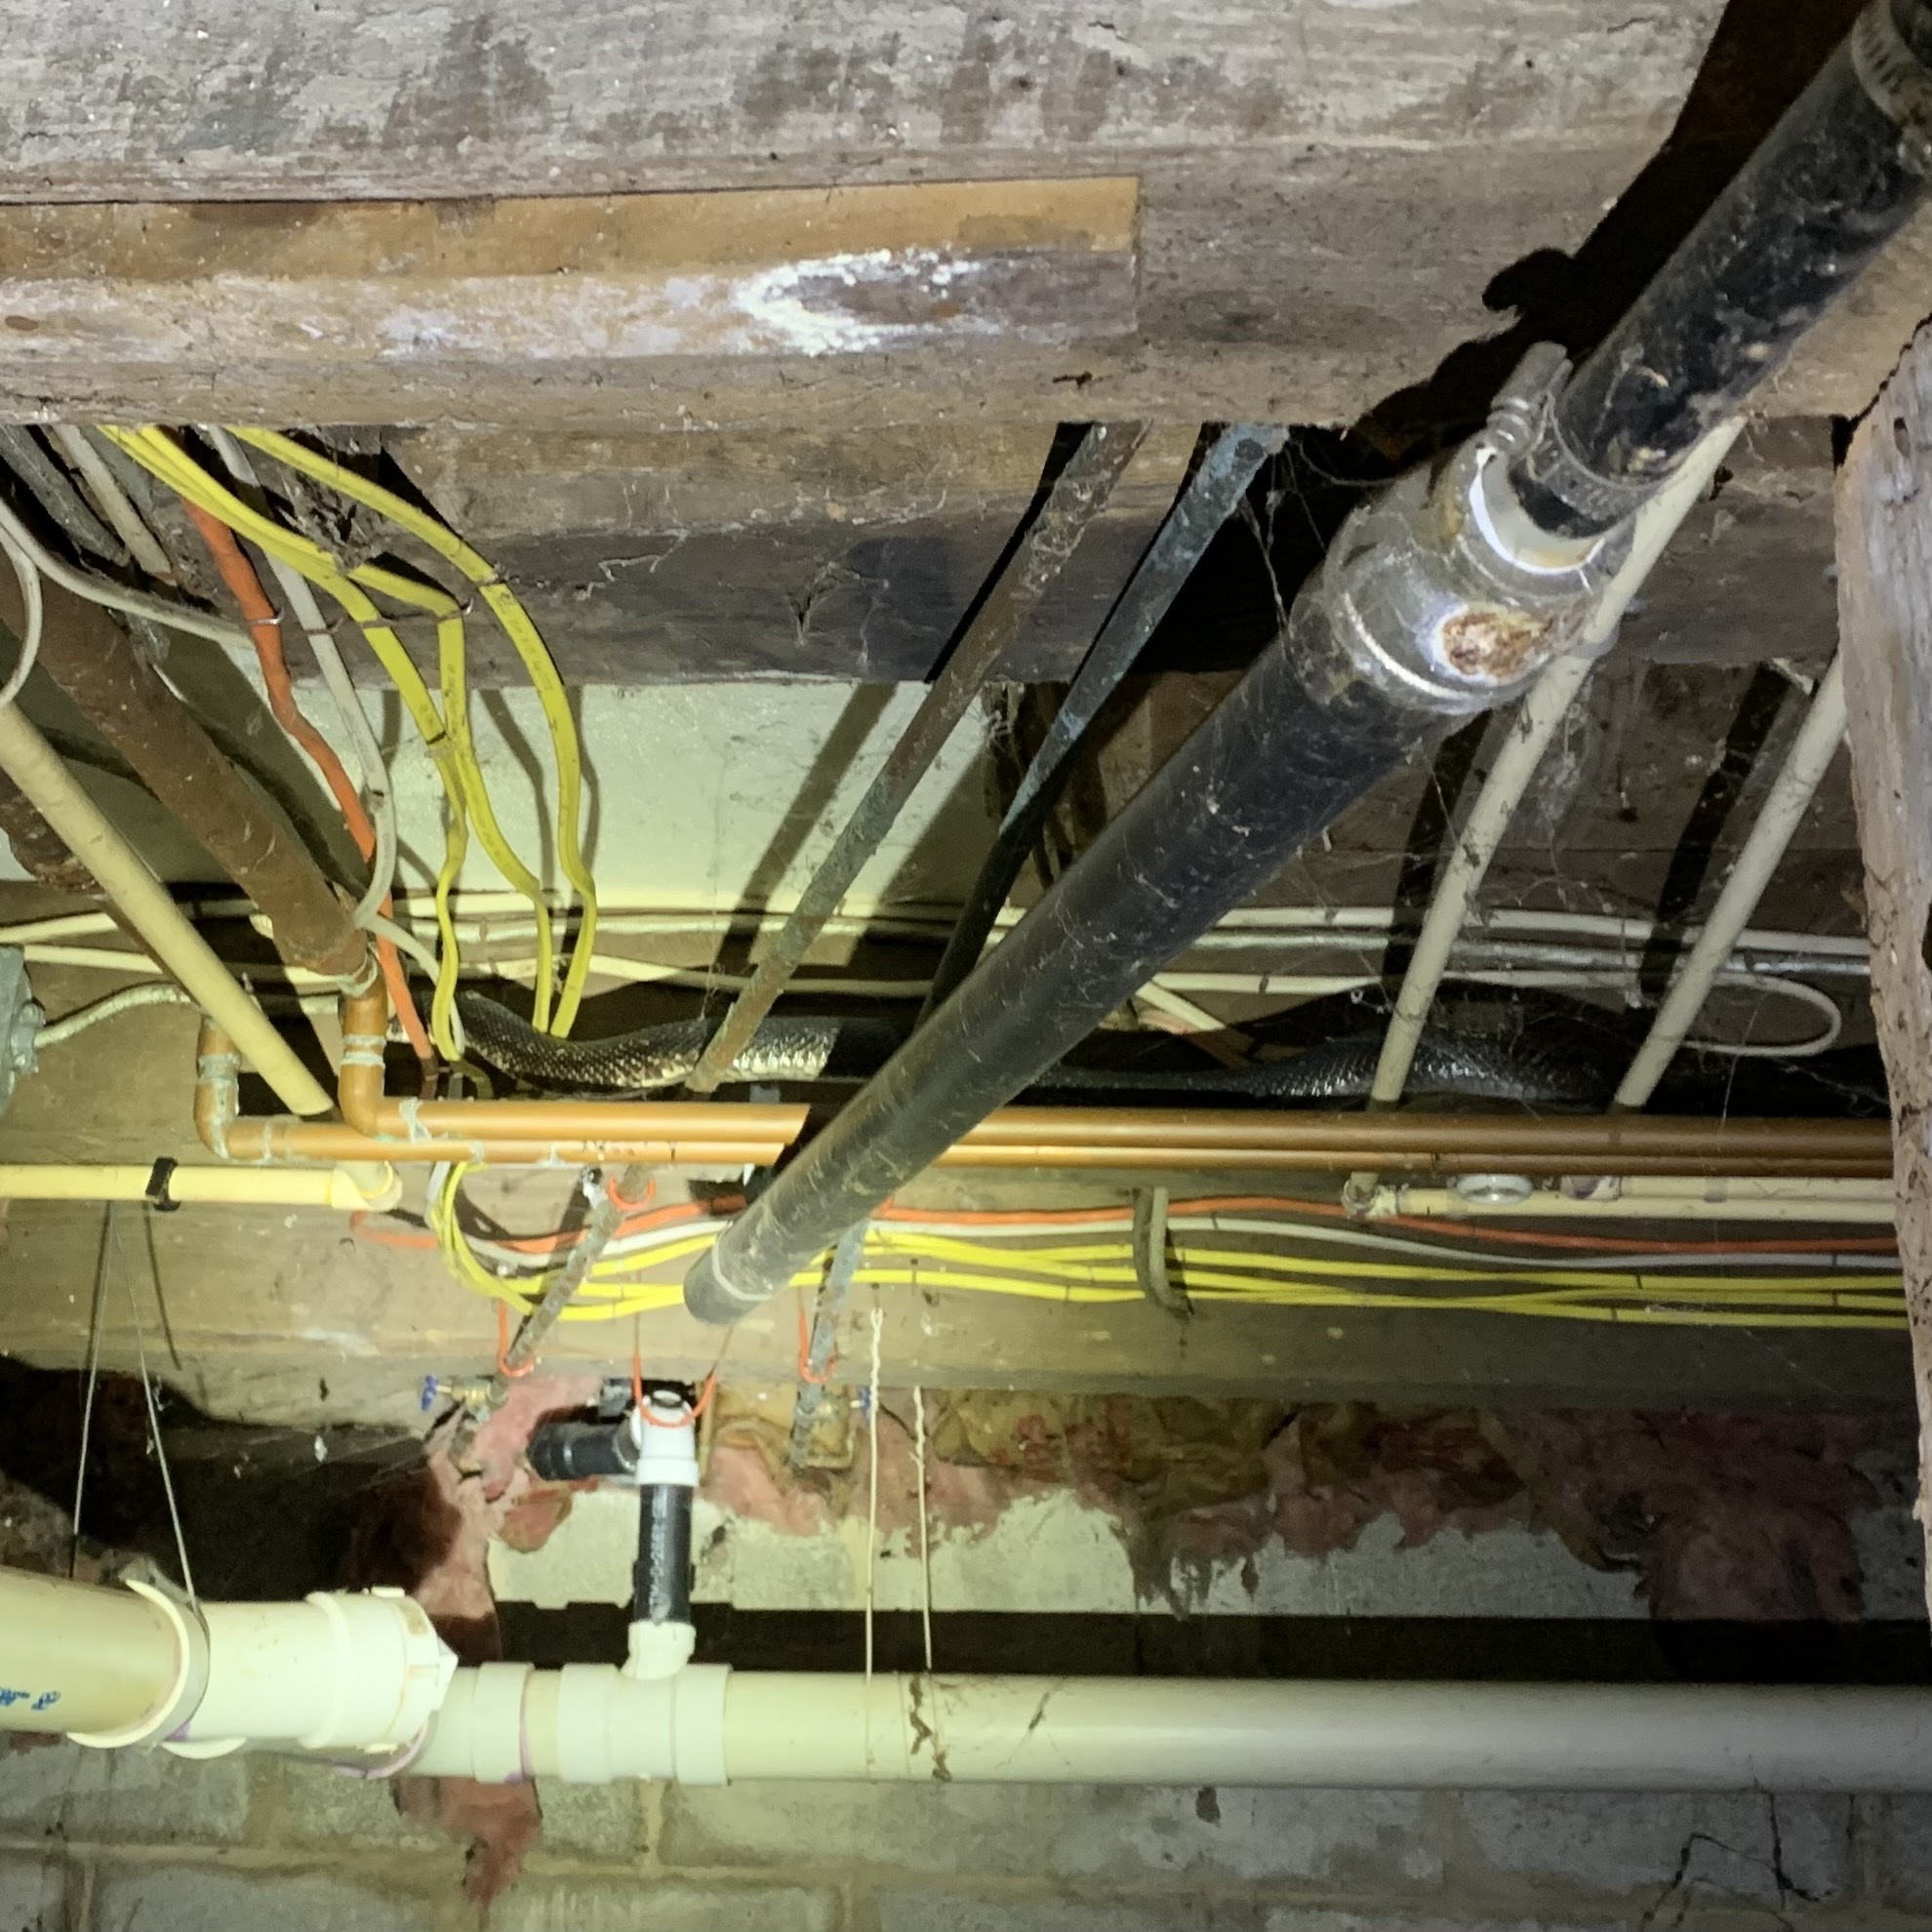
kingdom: Animalia
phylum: Chordata
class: Squamata
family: Colubridae
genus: Pantherophis
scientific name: Pantherophis
